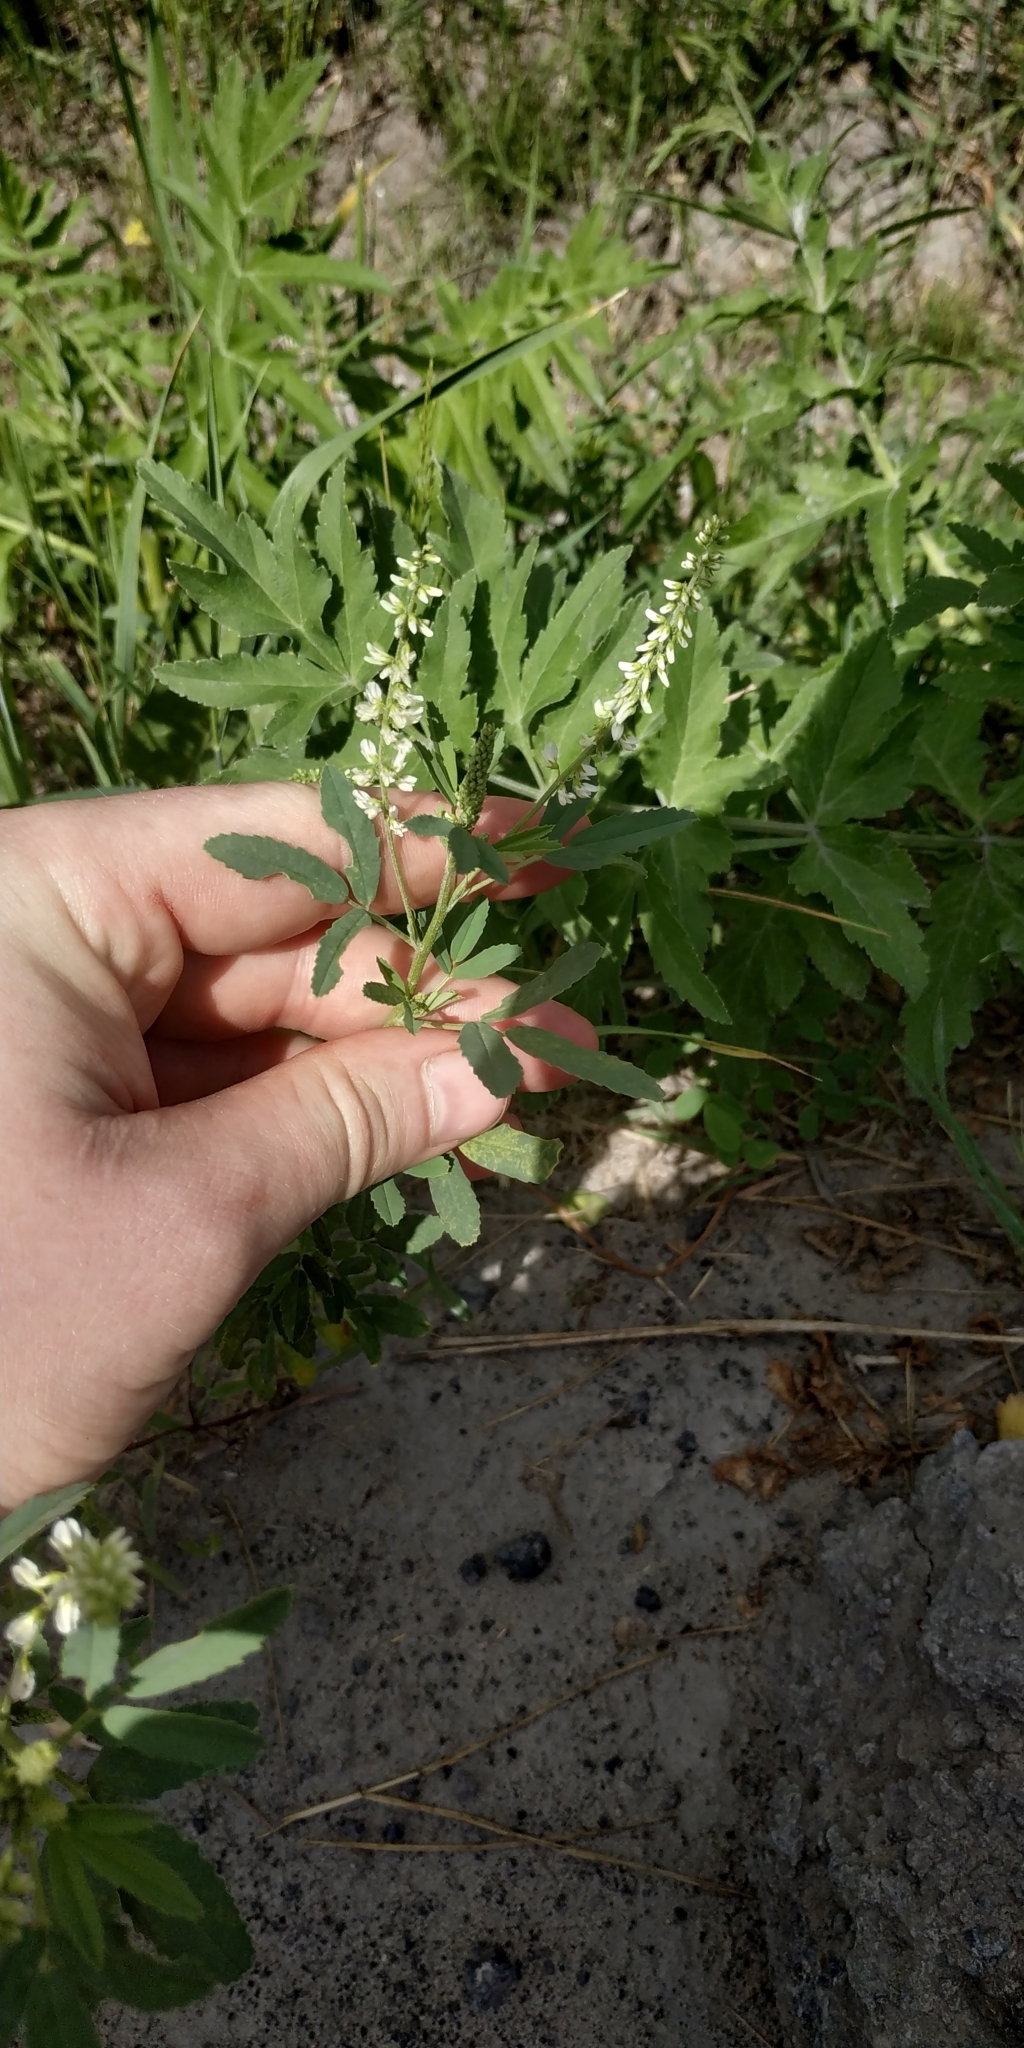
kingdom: Plantae
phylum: Tracheophyta
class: Magnoliopsida
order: Fabales
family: Fabaceae
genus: Melilotus
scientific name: Melilotus albus
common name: White melilot
